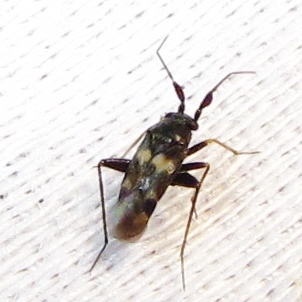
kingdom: Animalia
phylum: Arthropoda
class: Insecta
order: Hemiptera
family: Miridae
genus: Spanagonicus
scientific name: Spanagonicus albofasciatus
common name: Whitemarked fleahopper
